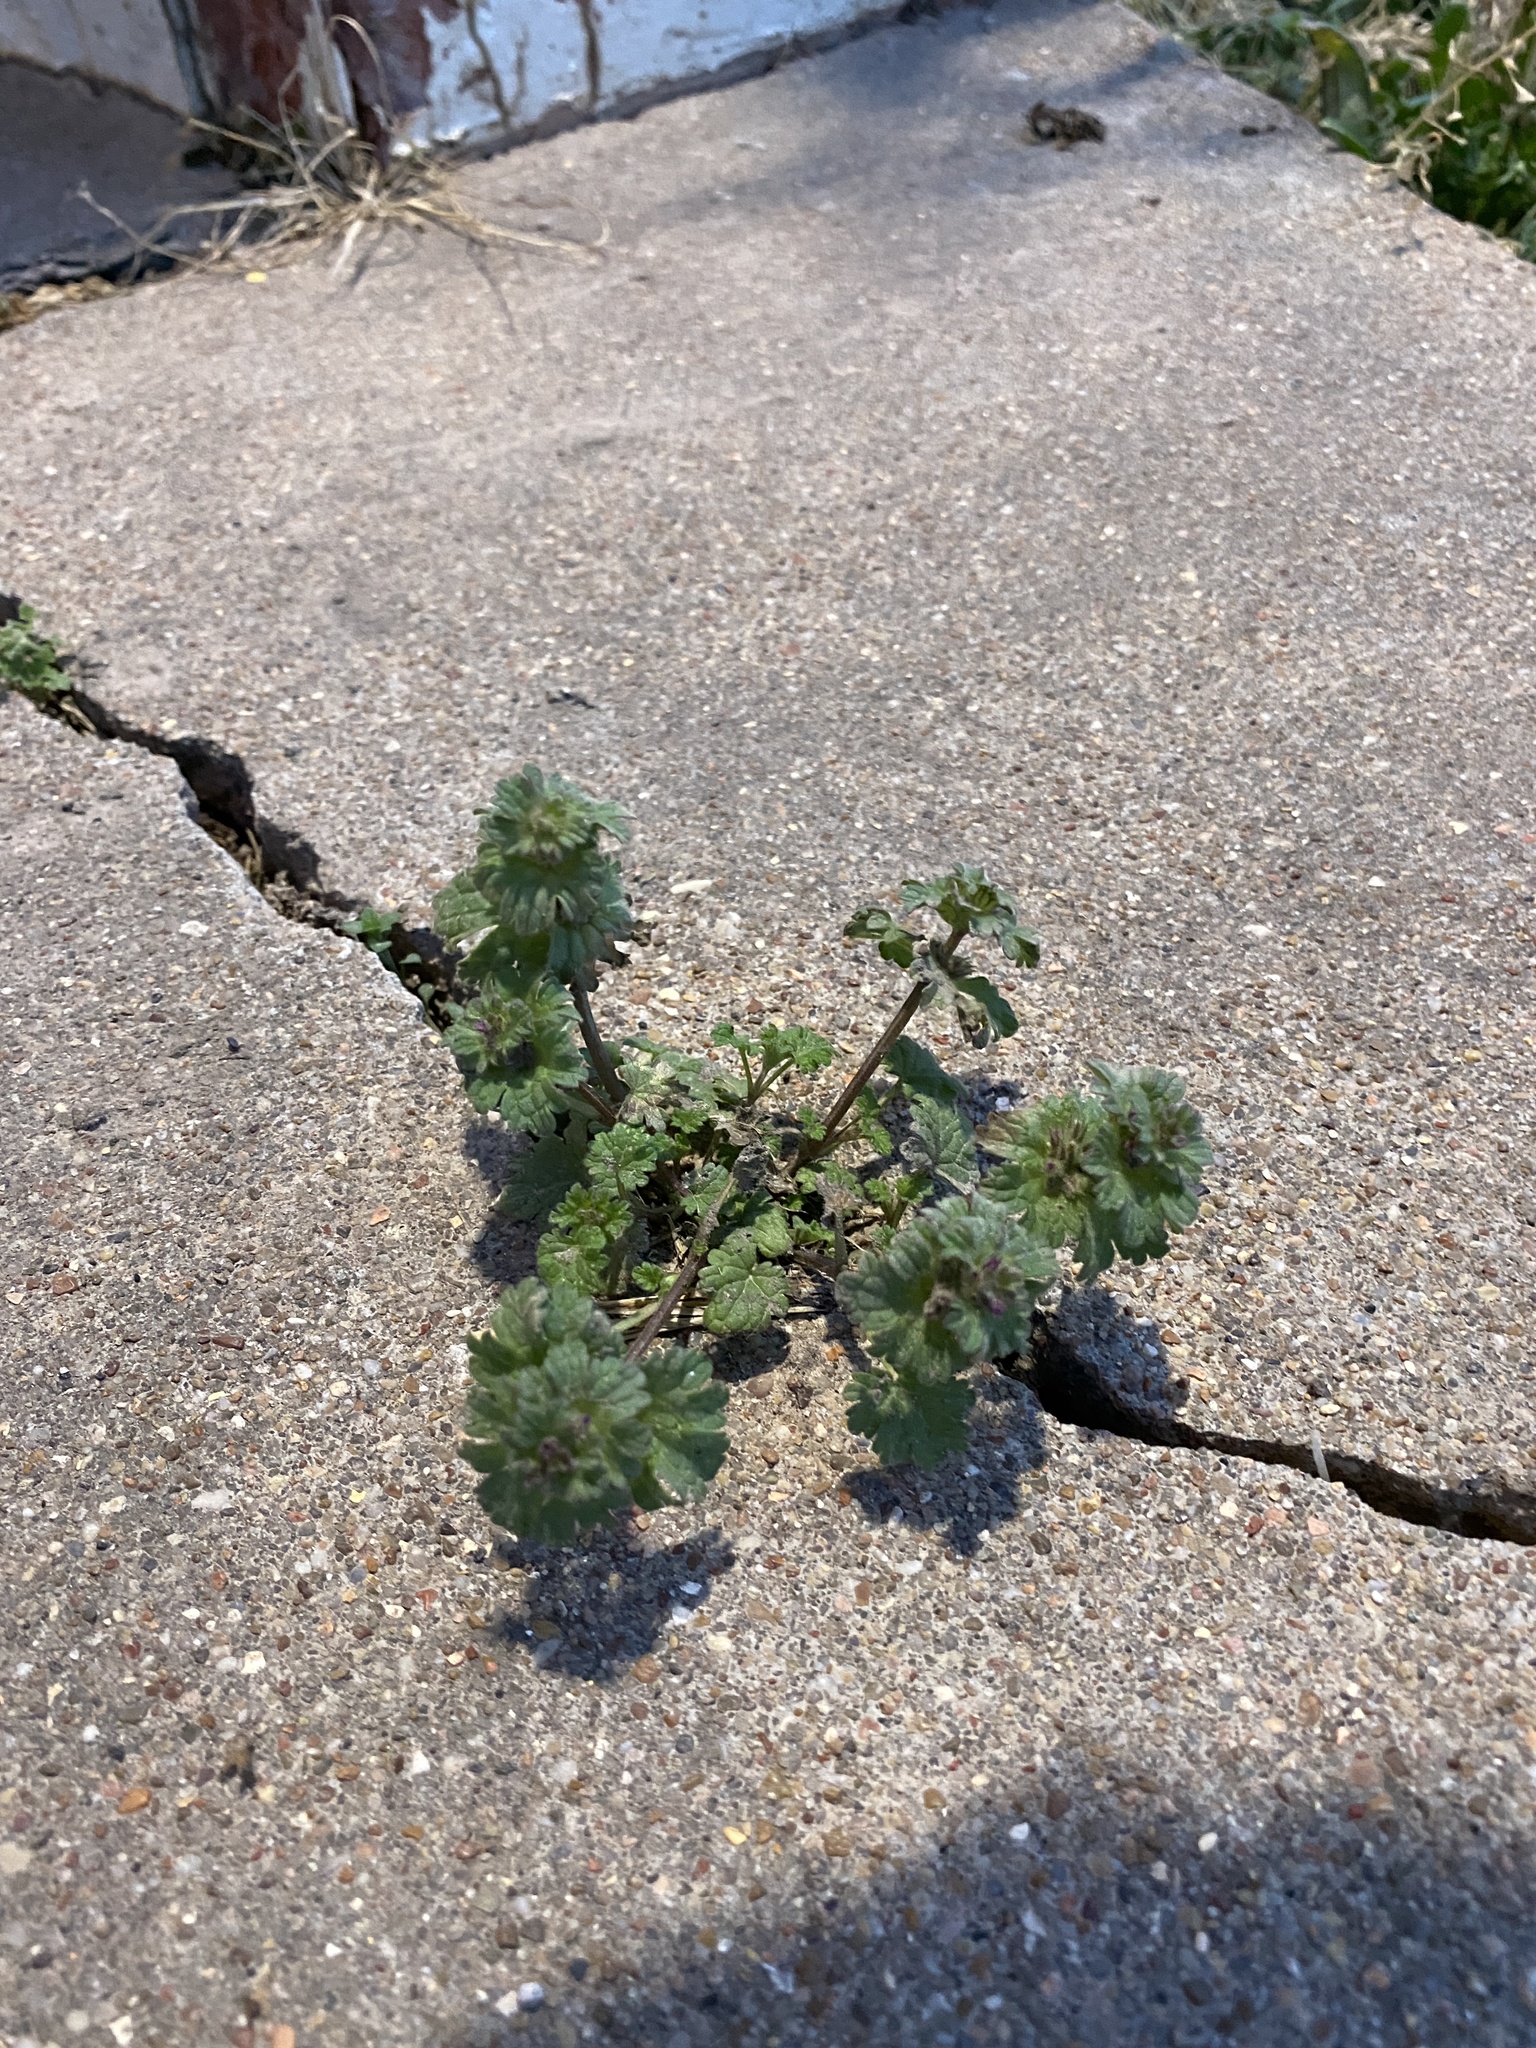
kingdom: Plantae
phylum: Tracheophyta
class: Magnoliopsida
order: Lamiales
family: Lamiaceae
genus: Lamium
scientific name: Lamium amplexicaule
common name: Henbit dead-nettle
